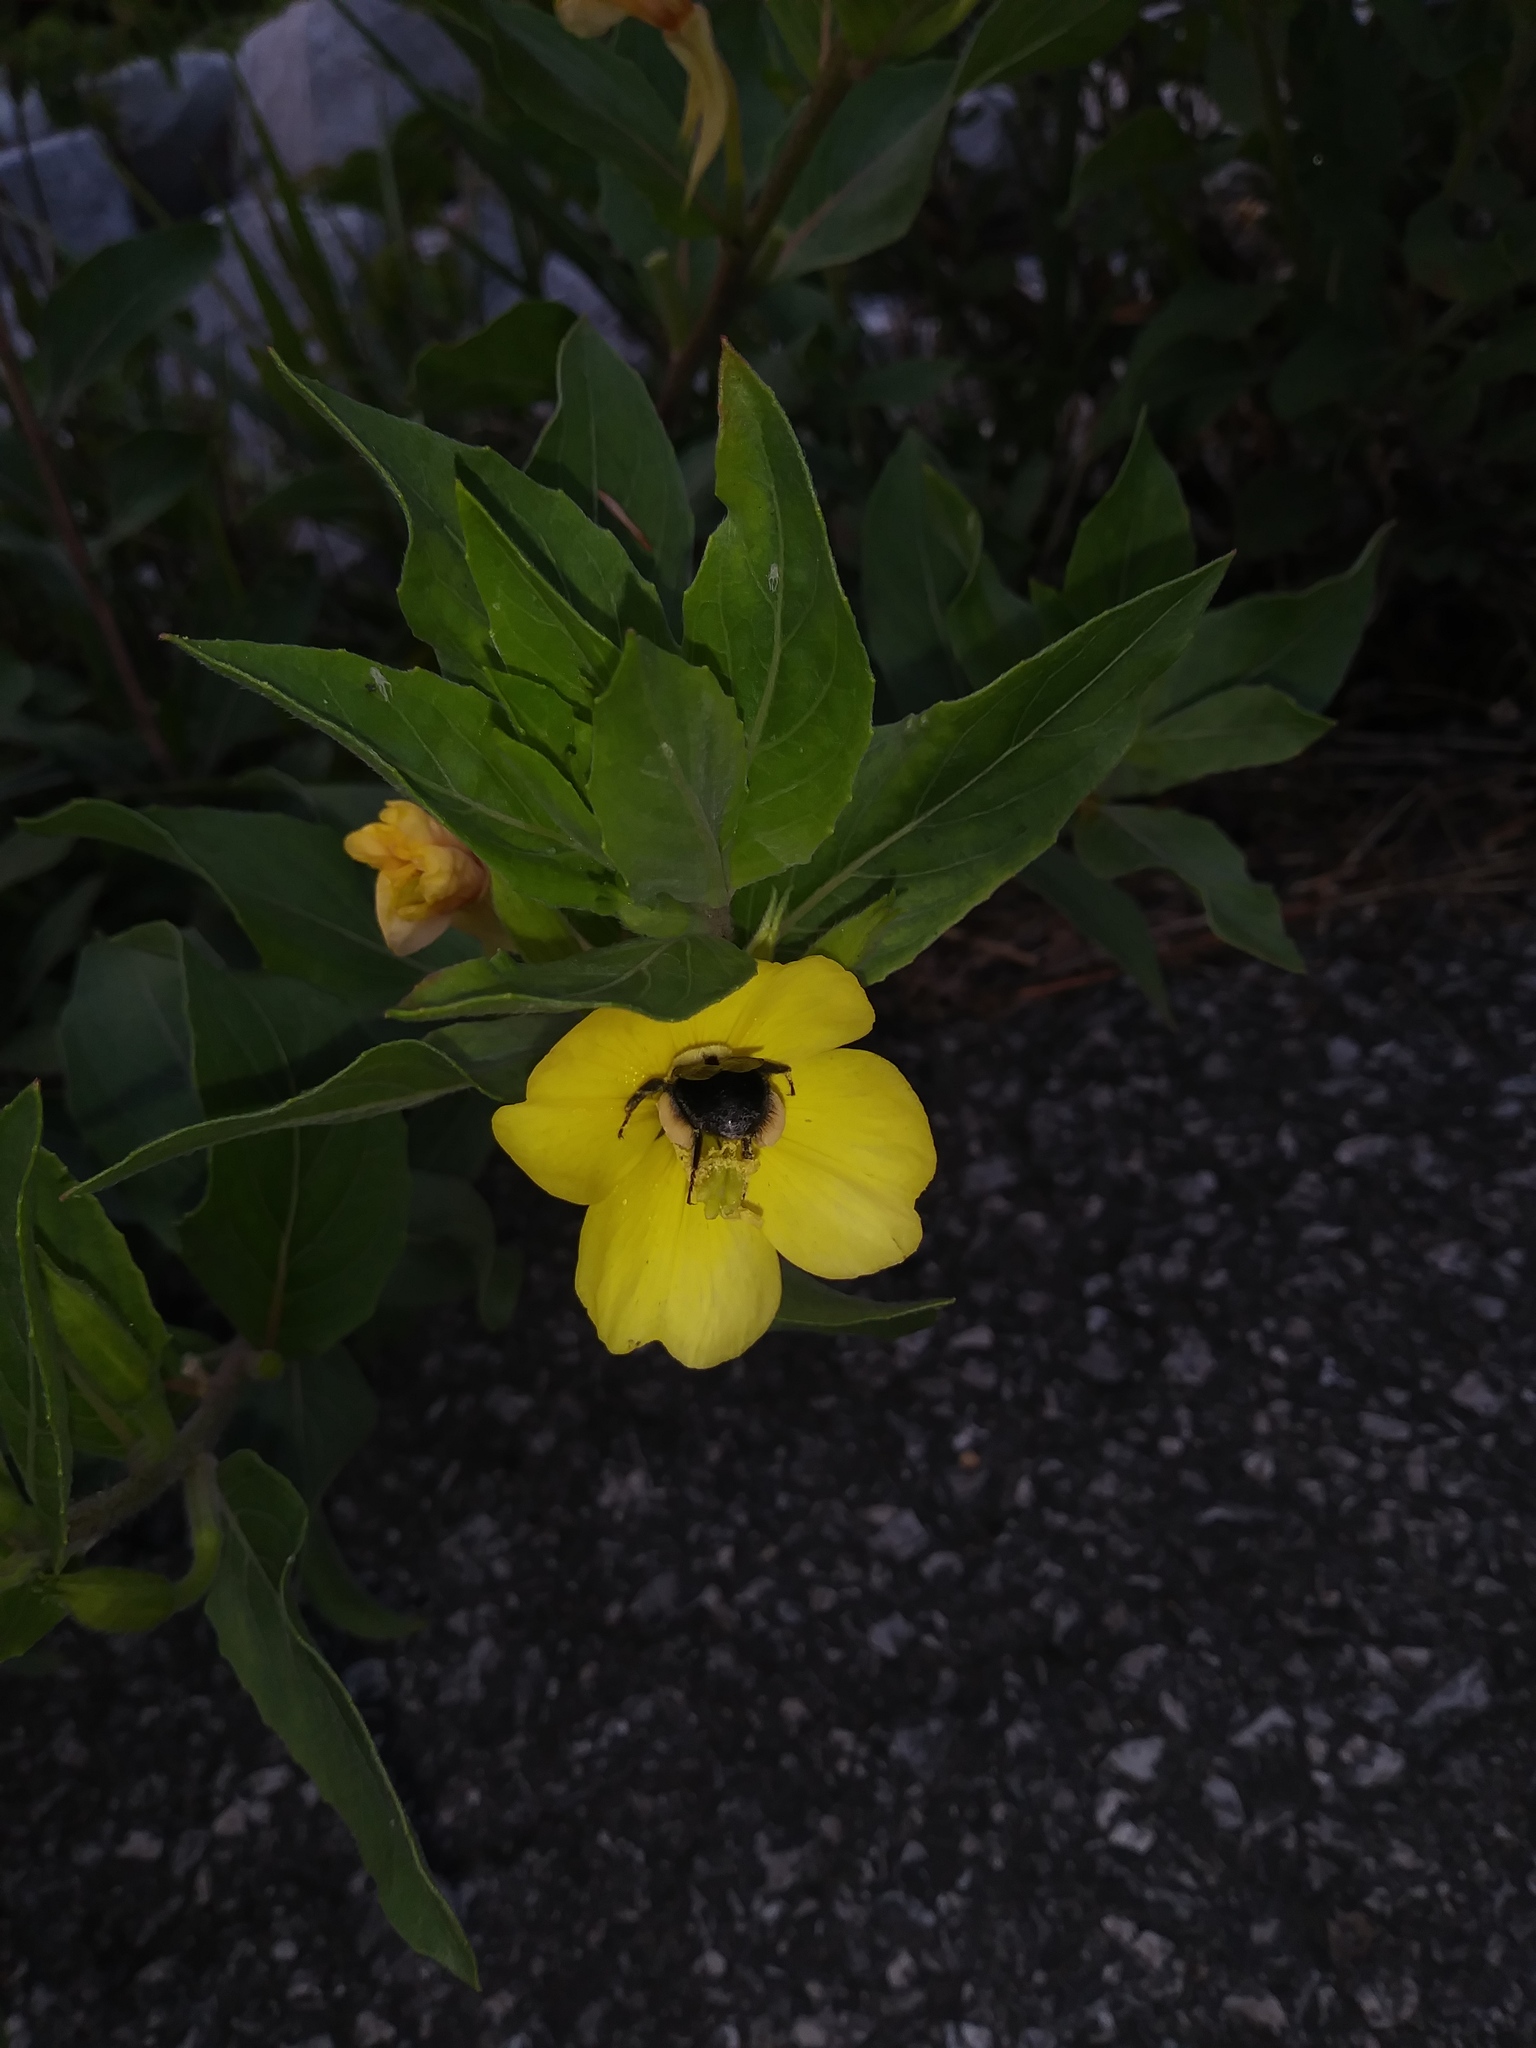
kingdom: Animalia
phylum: Arthropoda
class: Insecta
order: Hymenoptera
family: Apidae
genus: Bombus
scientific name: Bombus impatiens
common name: Common eastern bumble bee
